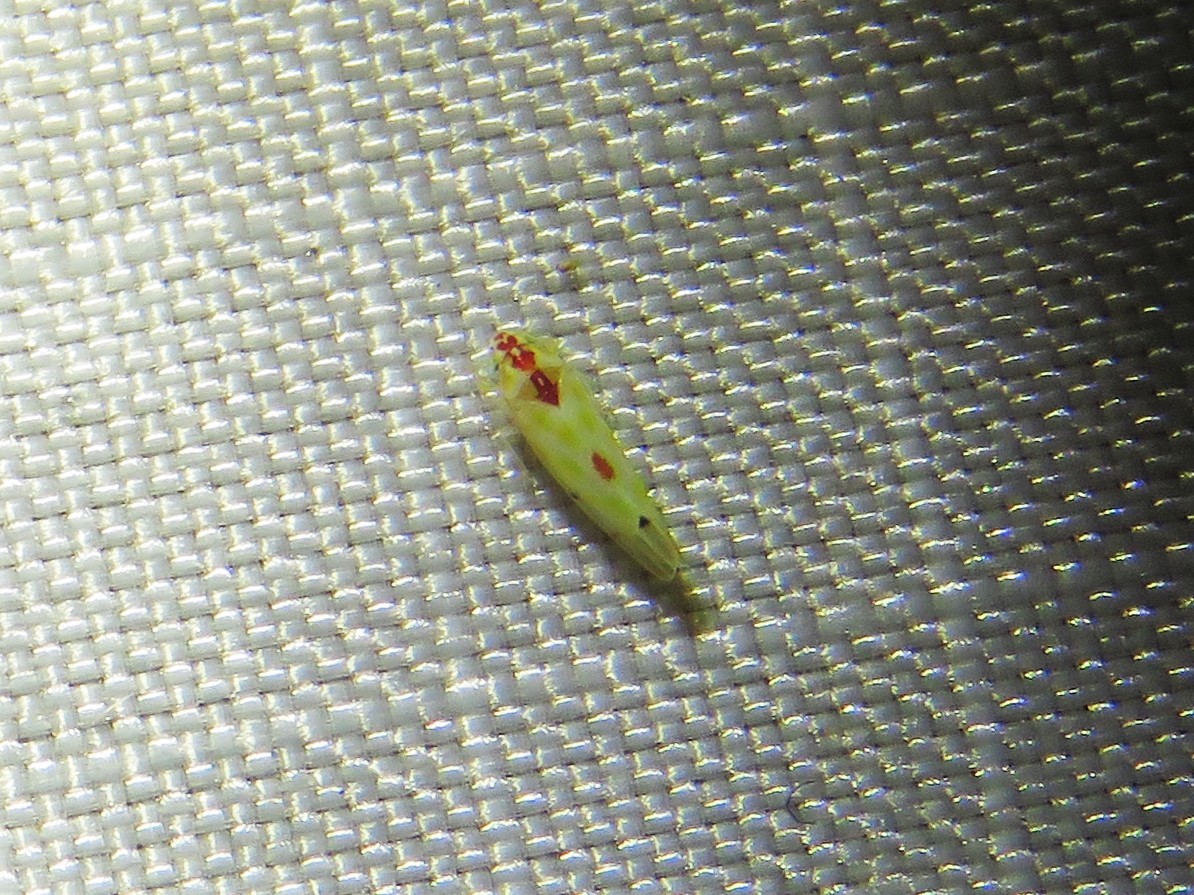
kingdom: Animalia
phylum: Arthropoda
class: Insecta
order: Hemiptera
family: Cicadellidae
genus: Eratoneura
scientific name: Eratoneura externa
